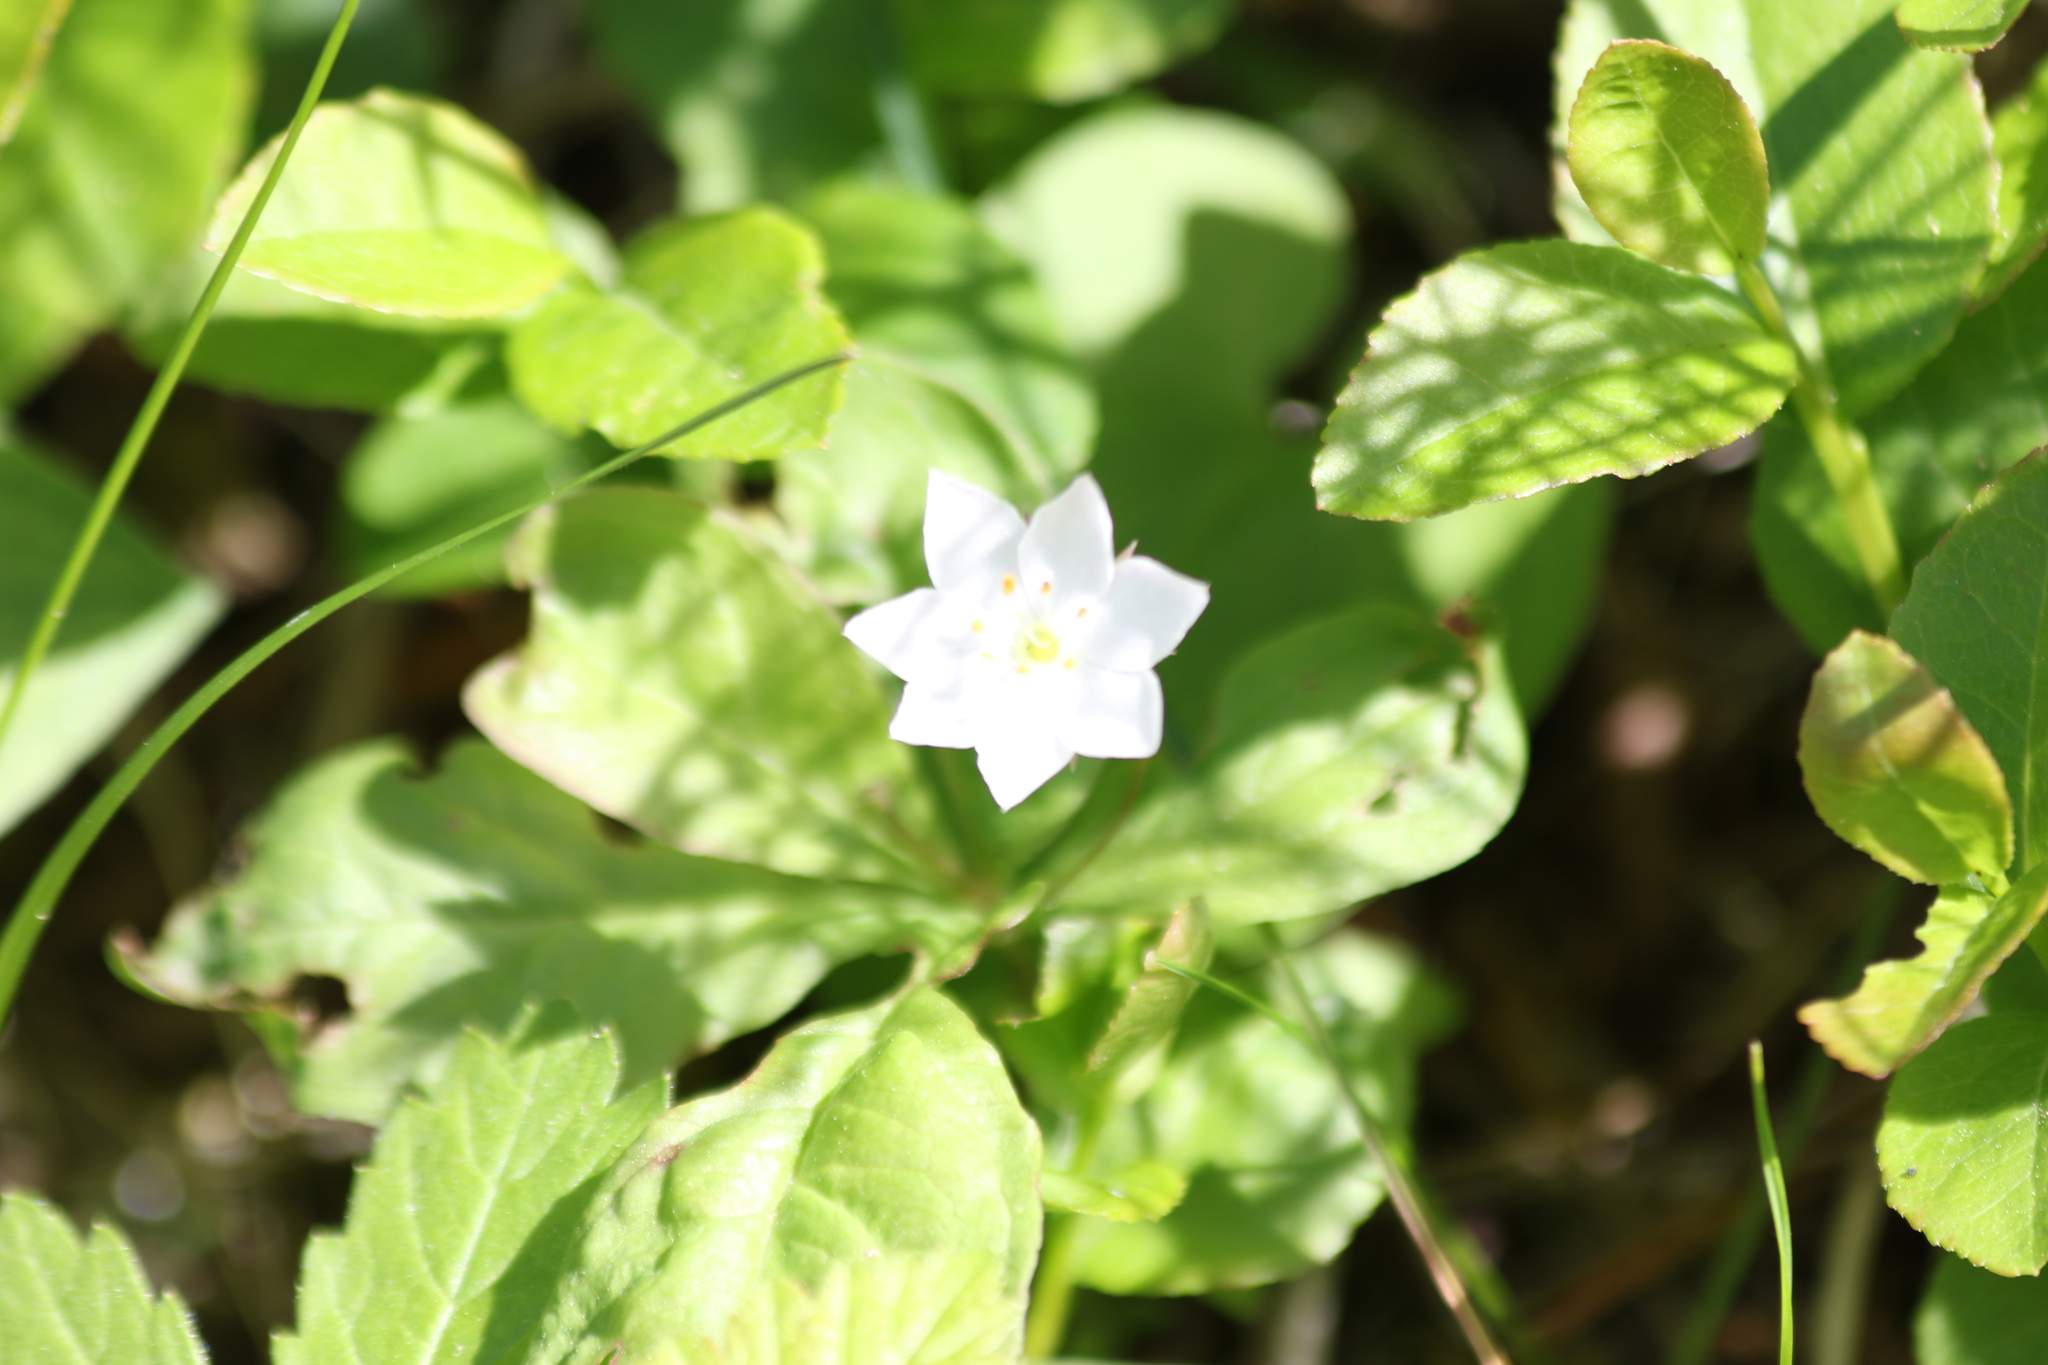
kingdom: Plantae
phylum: Tracheophyta
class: Magnoliopsida
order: Ericales
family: Primulaceae
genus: Lysimachia
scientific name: Lysimachia europaea
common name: Arctic starflower
